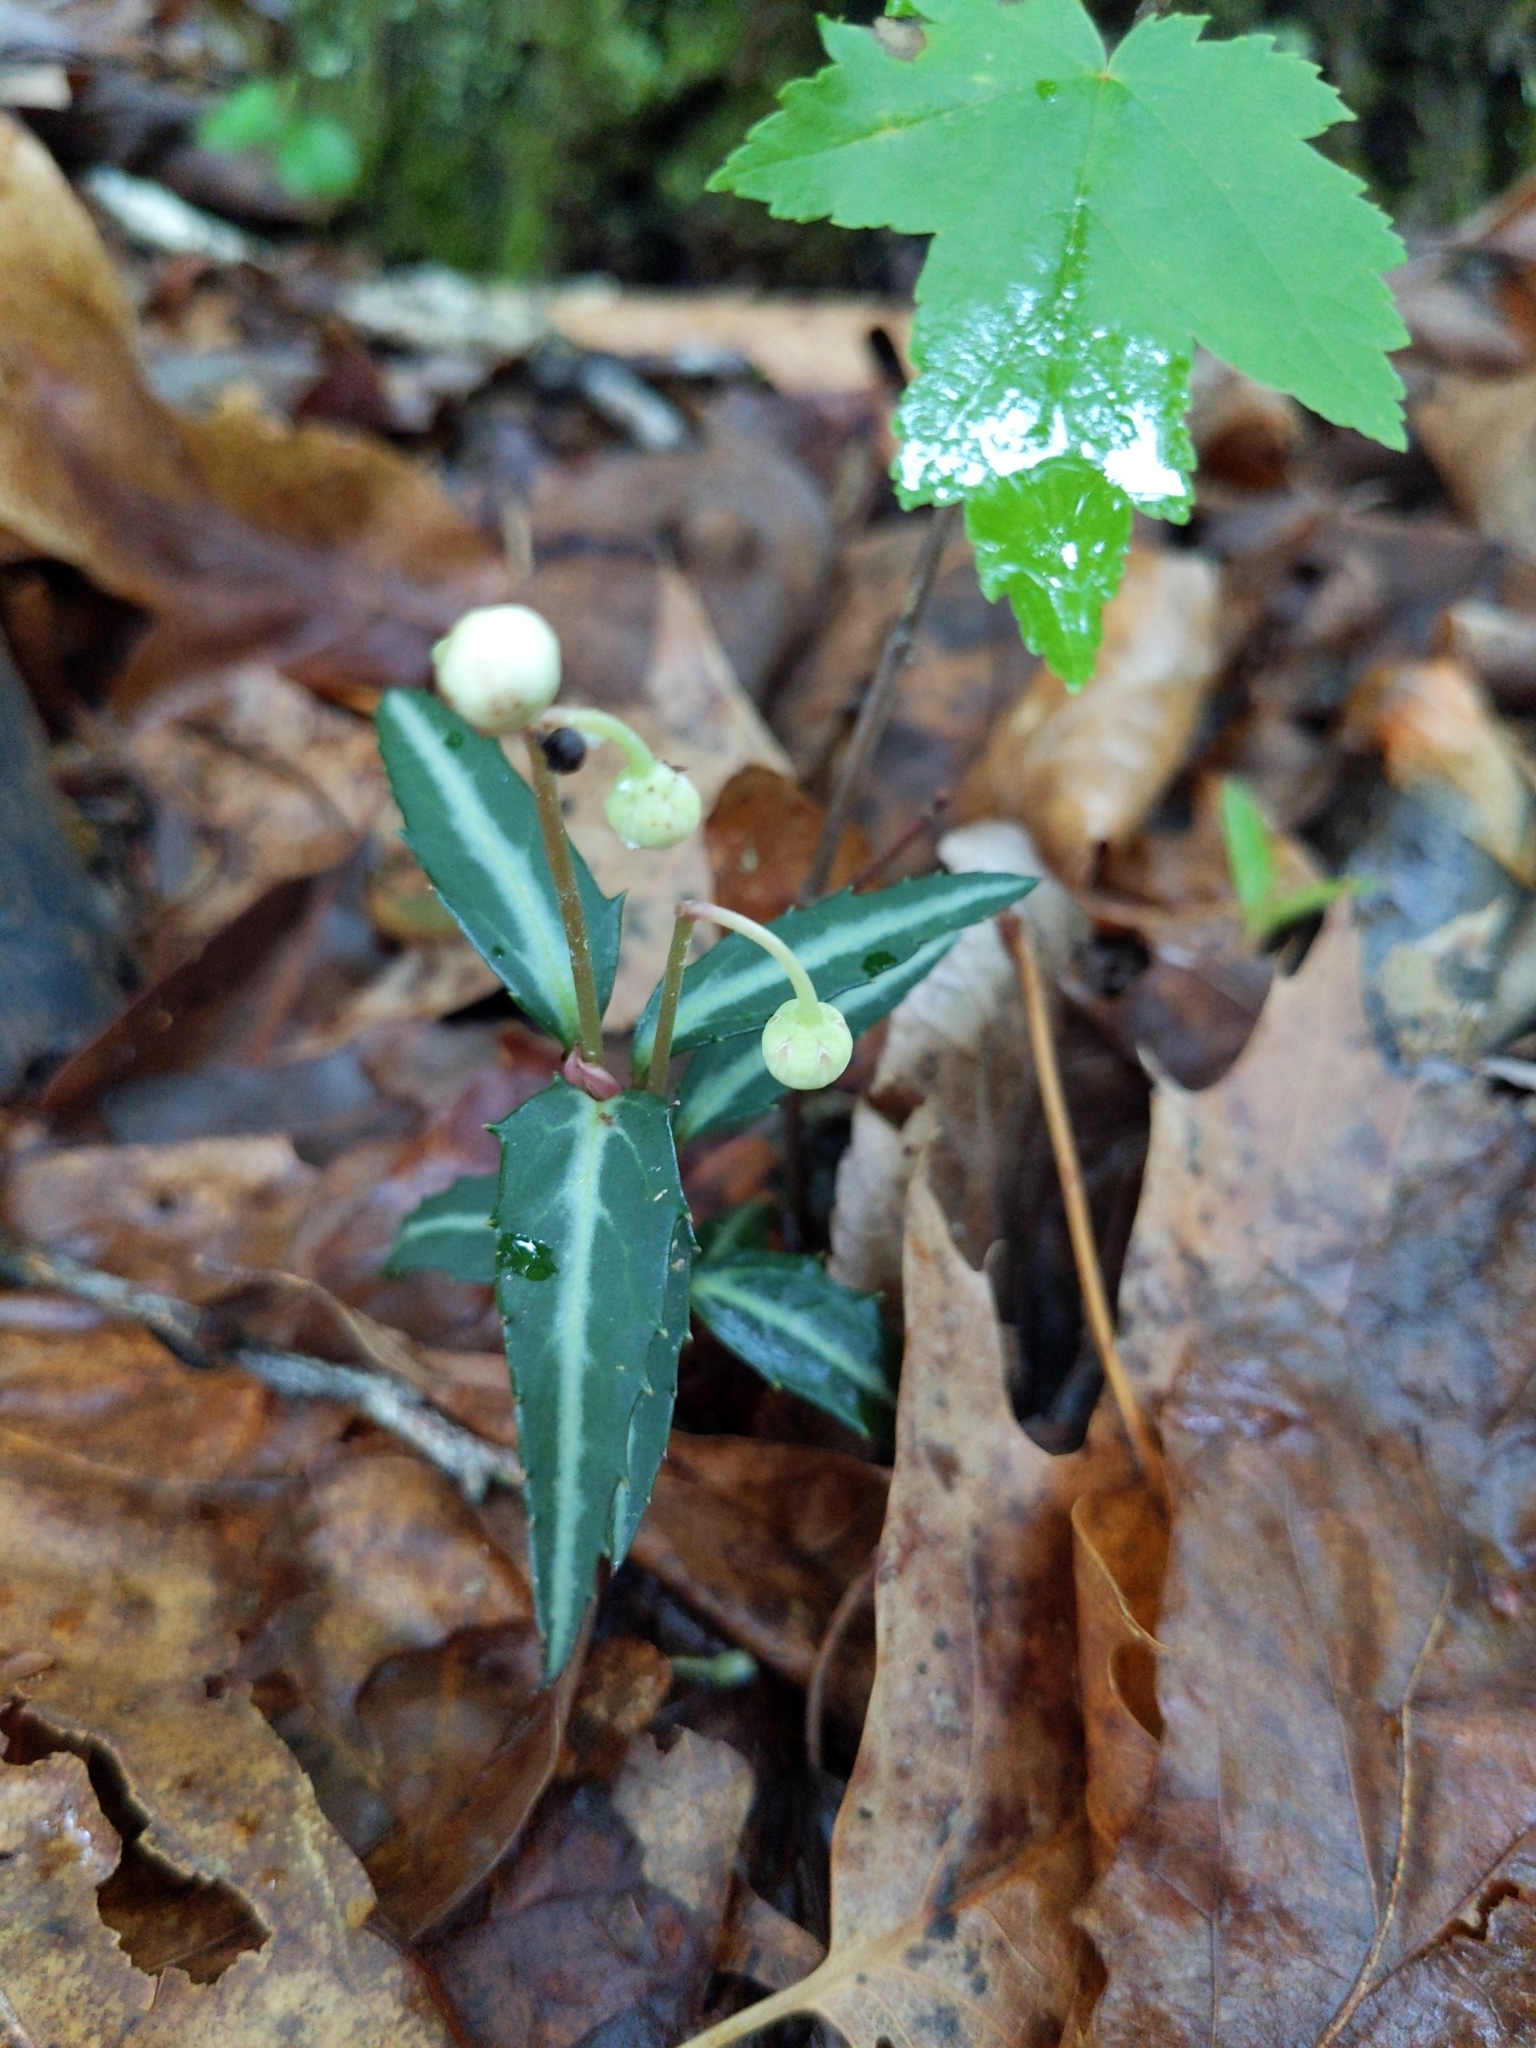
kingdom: Plantae
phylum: Tracheophyta
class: Magnoliopsida
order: Ericales
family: Ericaceae
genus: Chimaphila
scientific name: Chimaphila maculata
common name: Spotted pipsissewa
